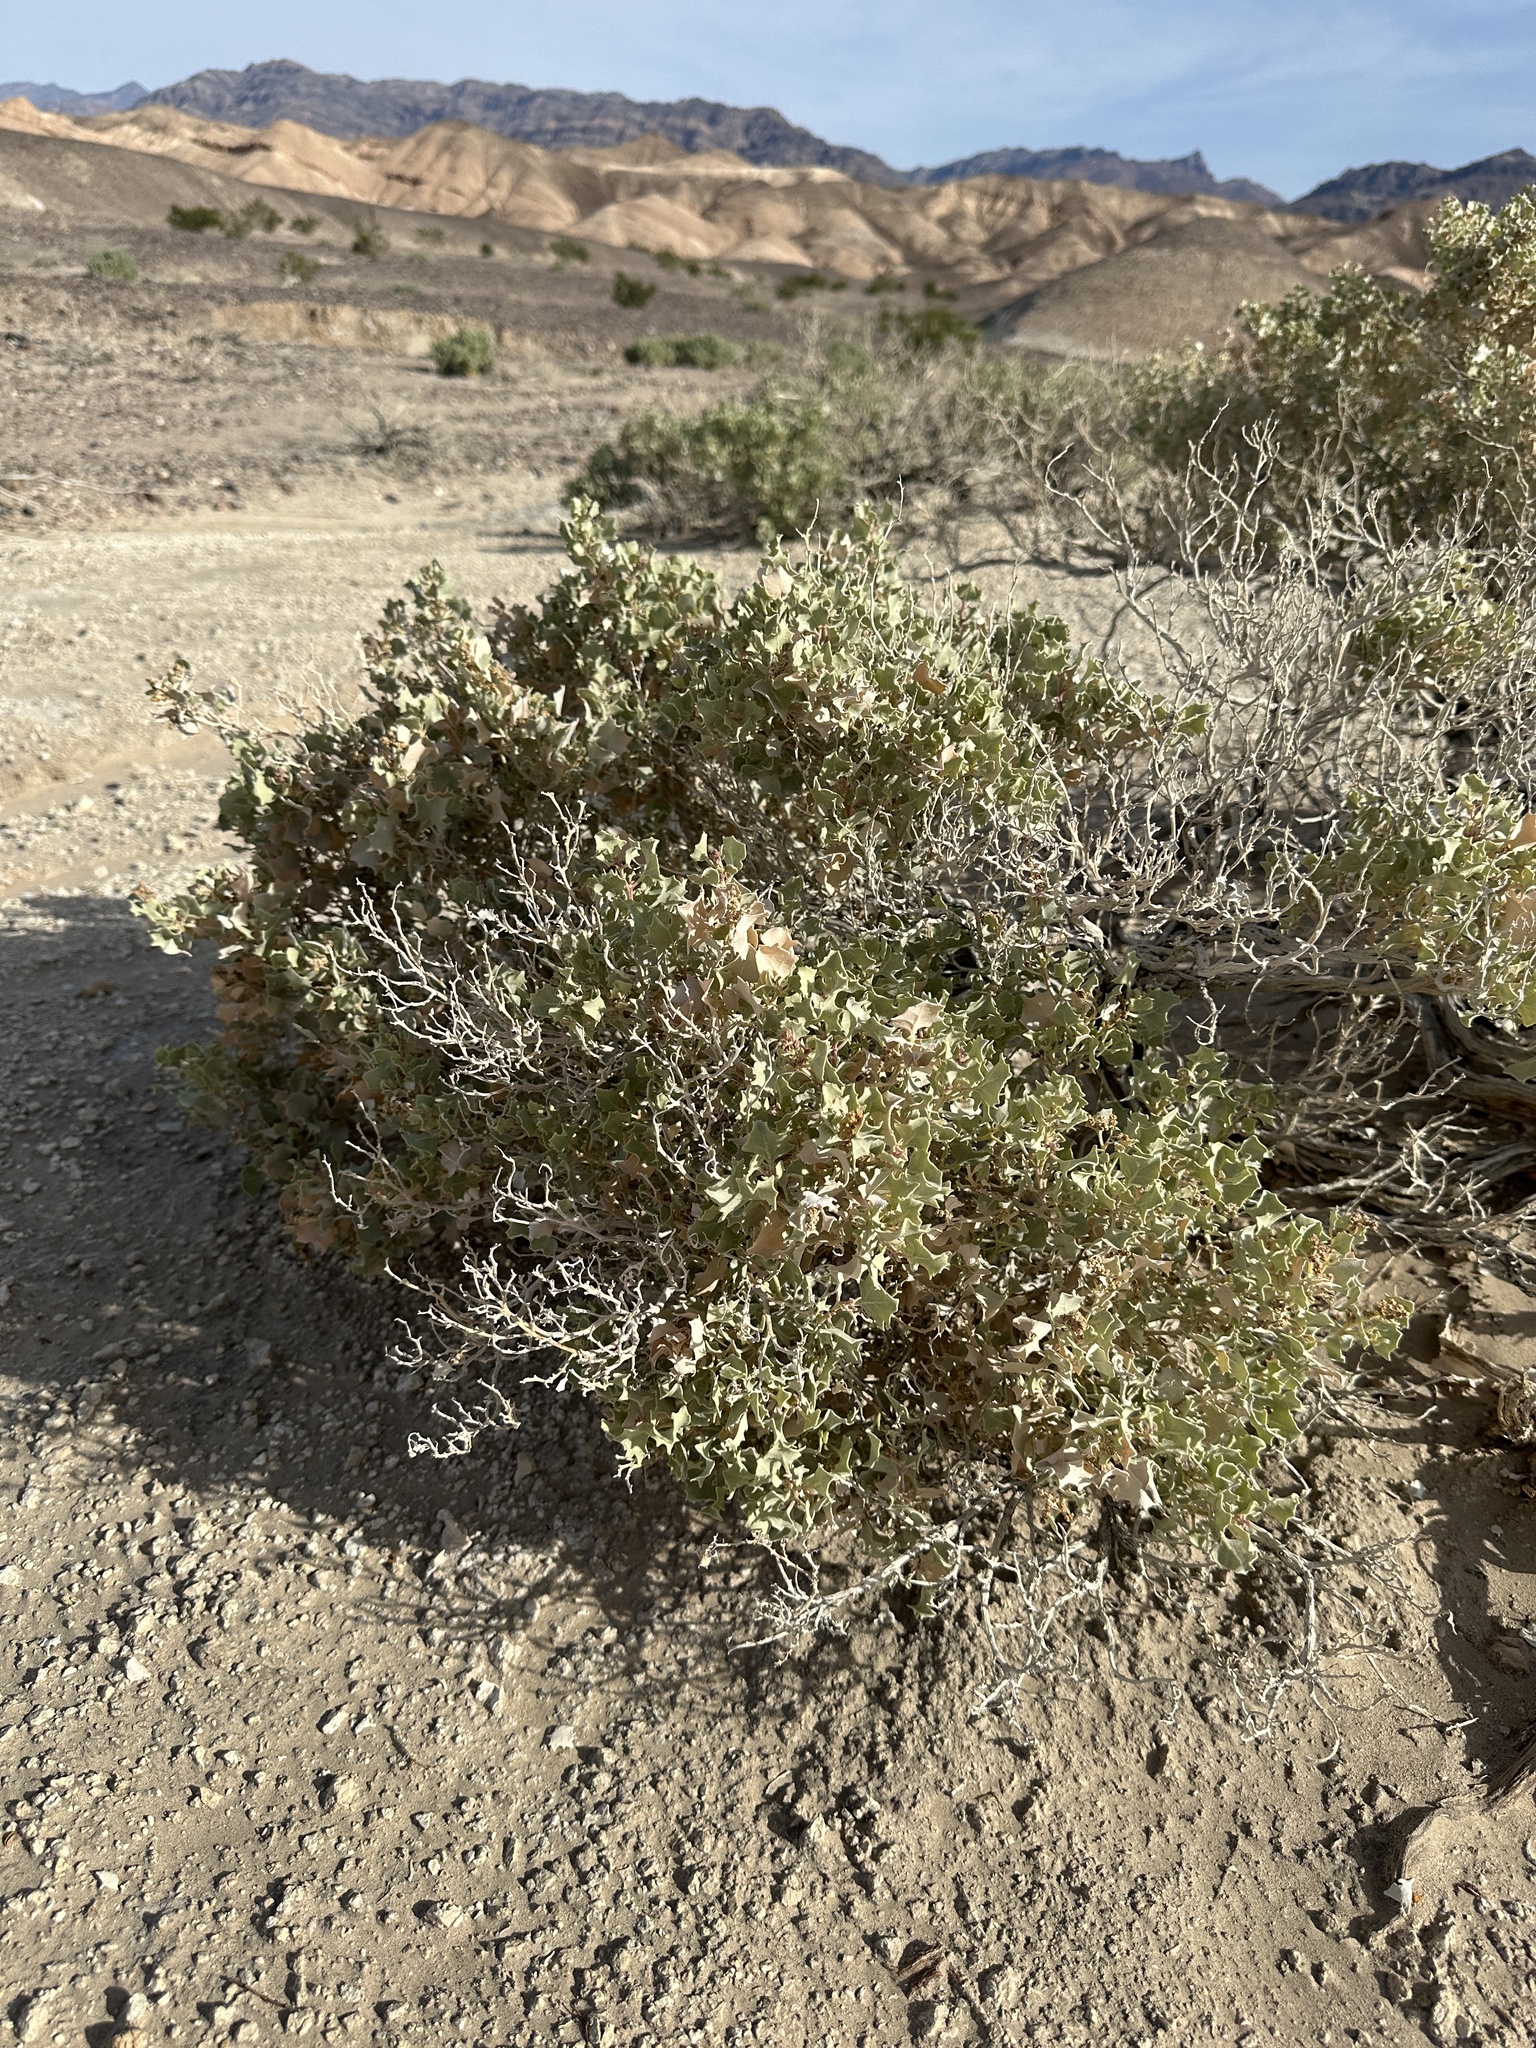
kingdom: Plantae
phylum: Tracheophyta
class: Magnoliopsida
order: Caryophyllales
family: Amaranthaceae
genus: Atriplex
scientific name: Atriplex hymenelytra
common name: Desert-holly
